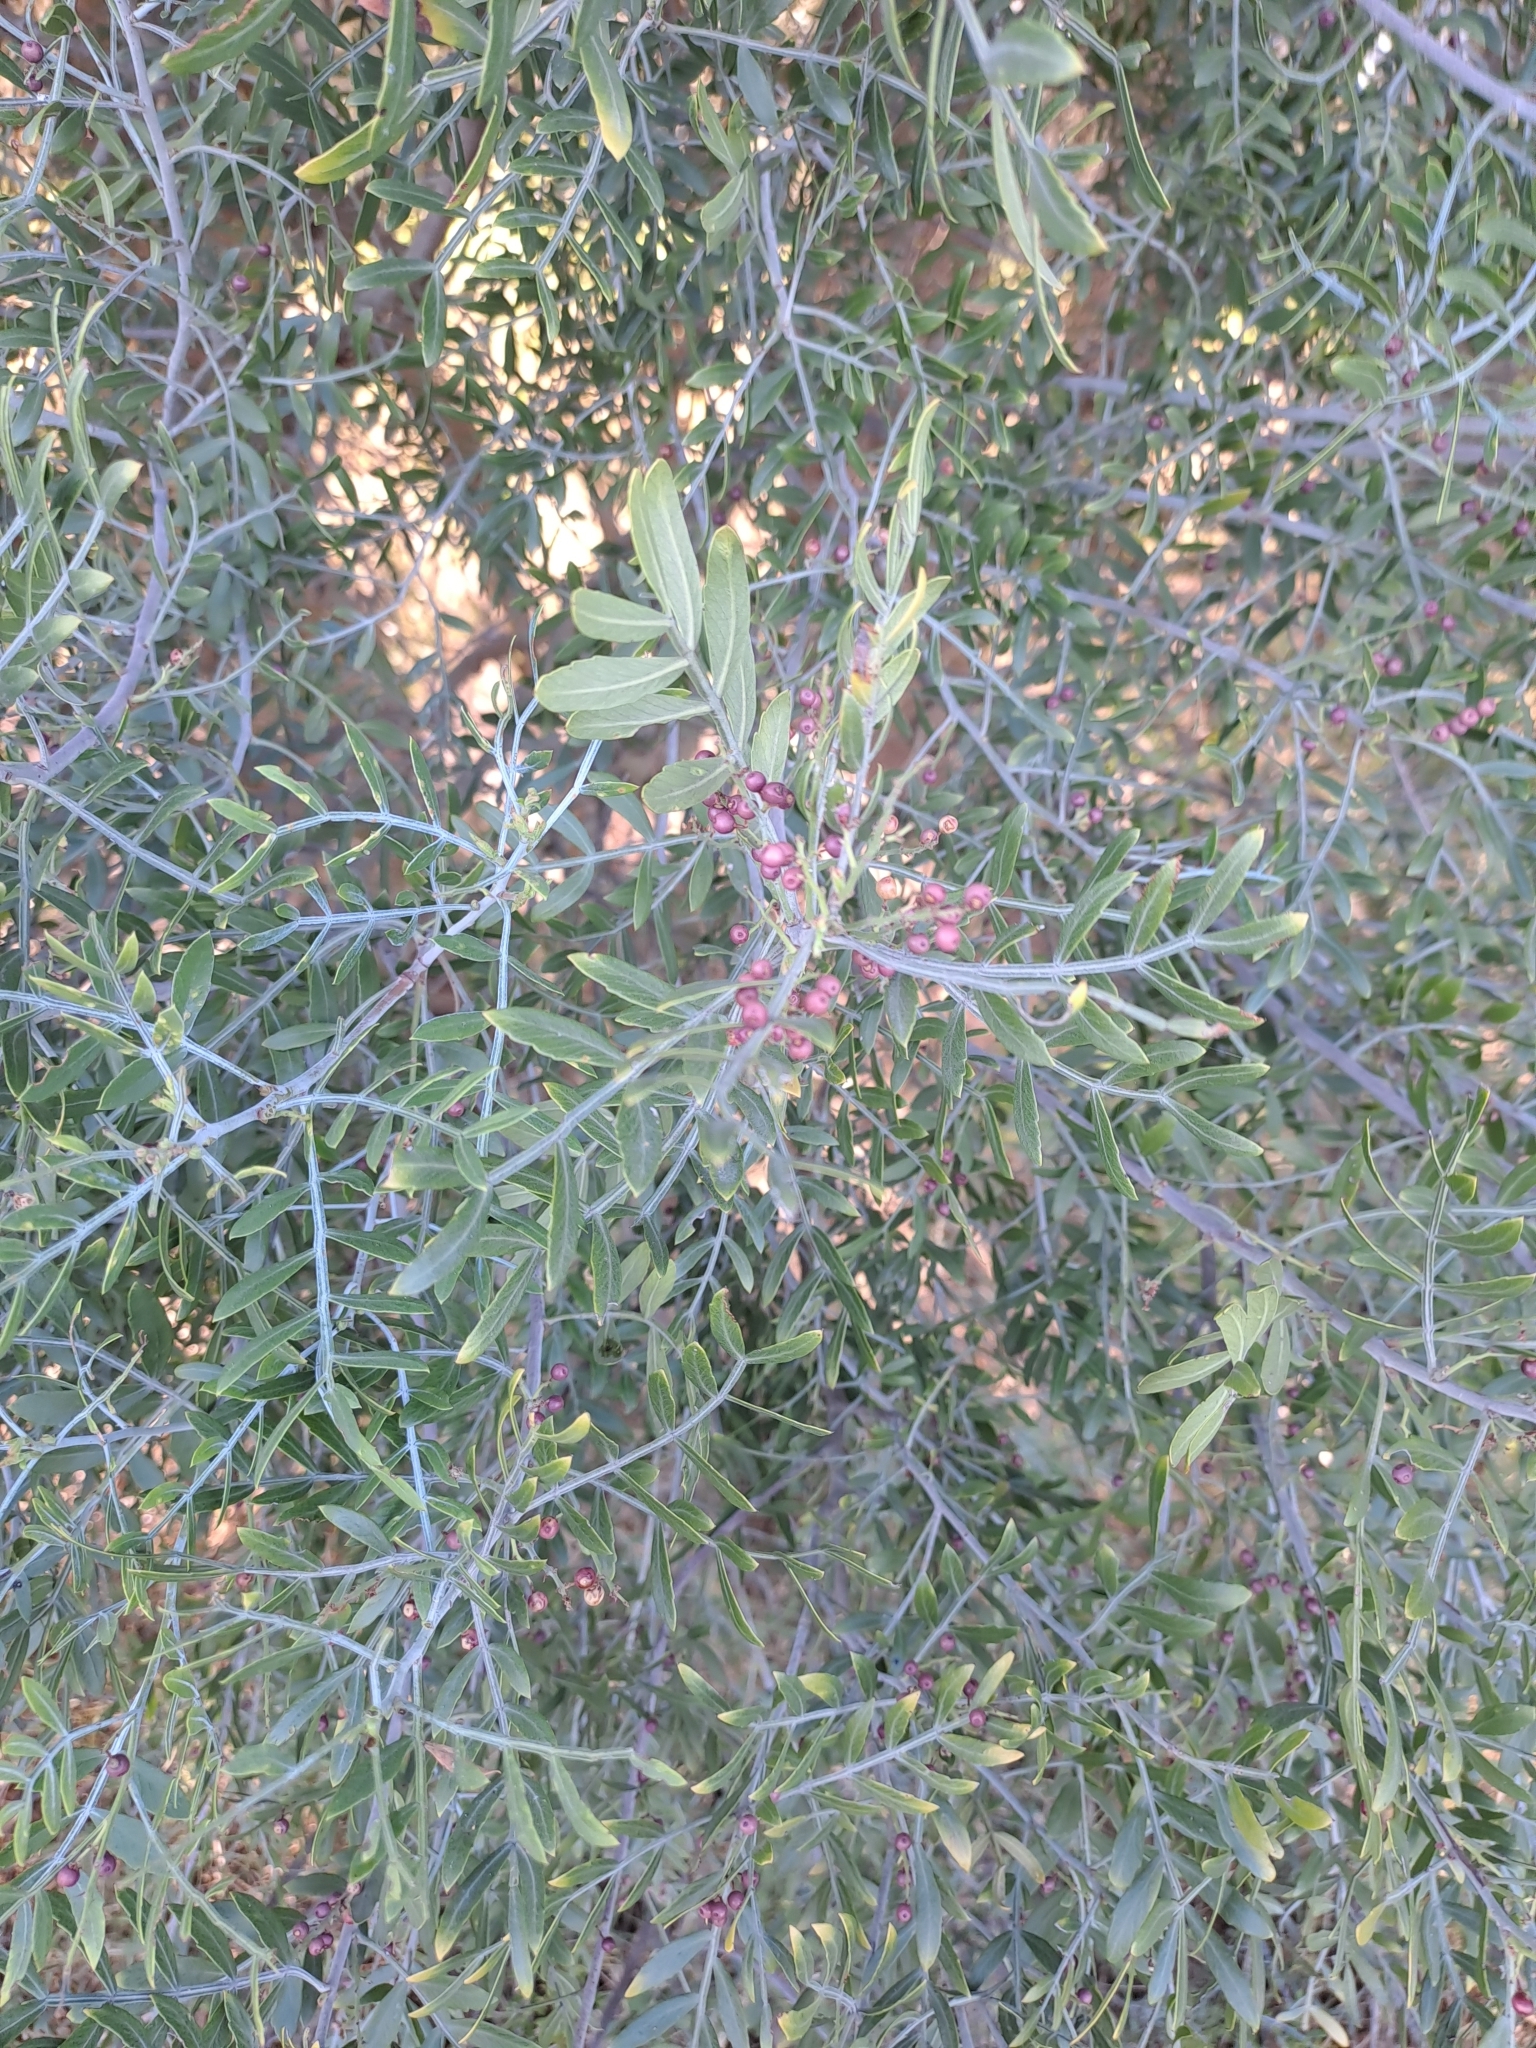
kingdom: Plantae
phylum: Tracheophyta
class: Magnoliopsida
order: Sapindales
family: Anacardiaceae
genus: Schinus
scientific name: Schinus lentiscifolia
